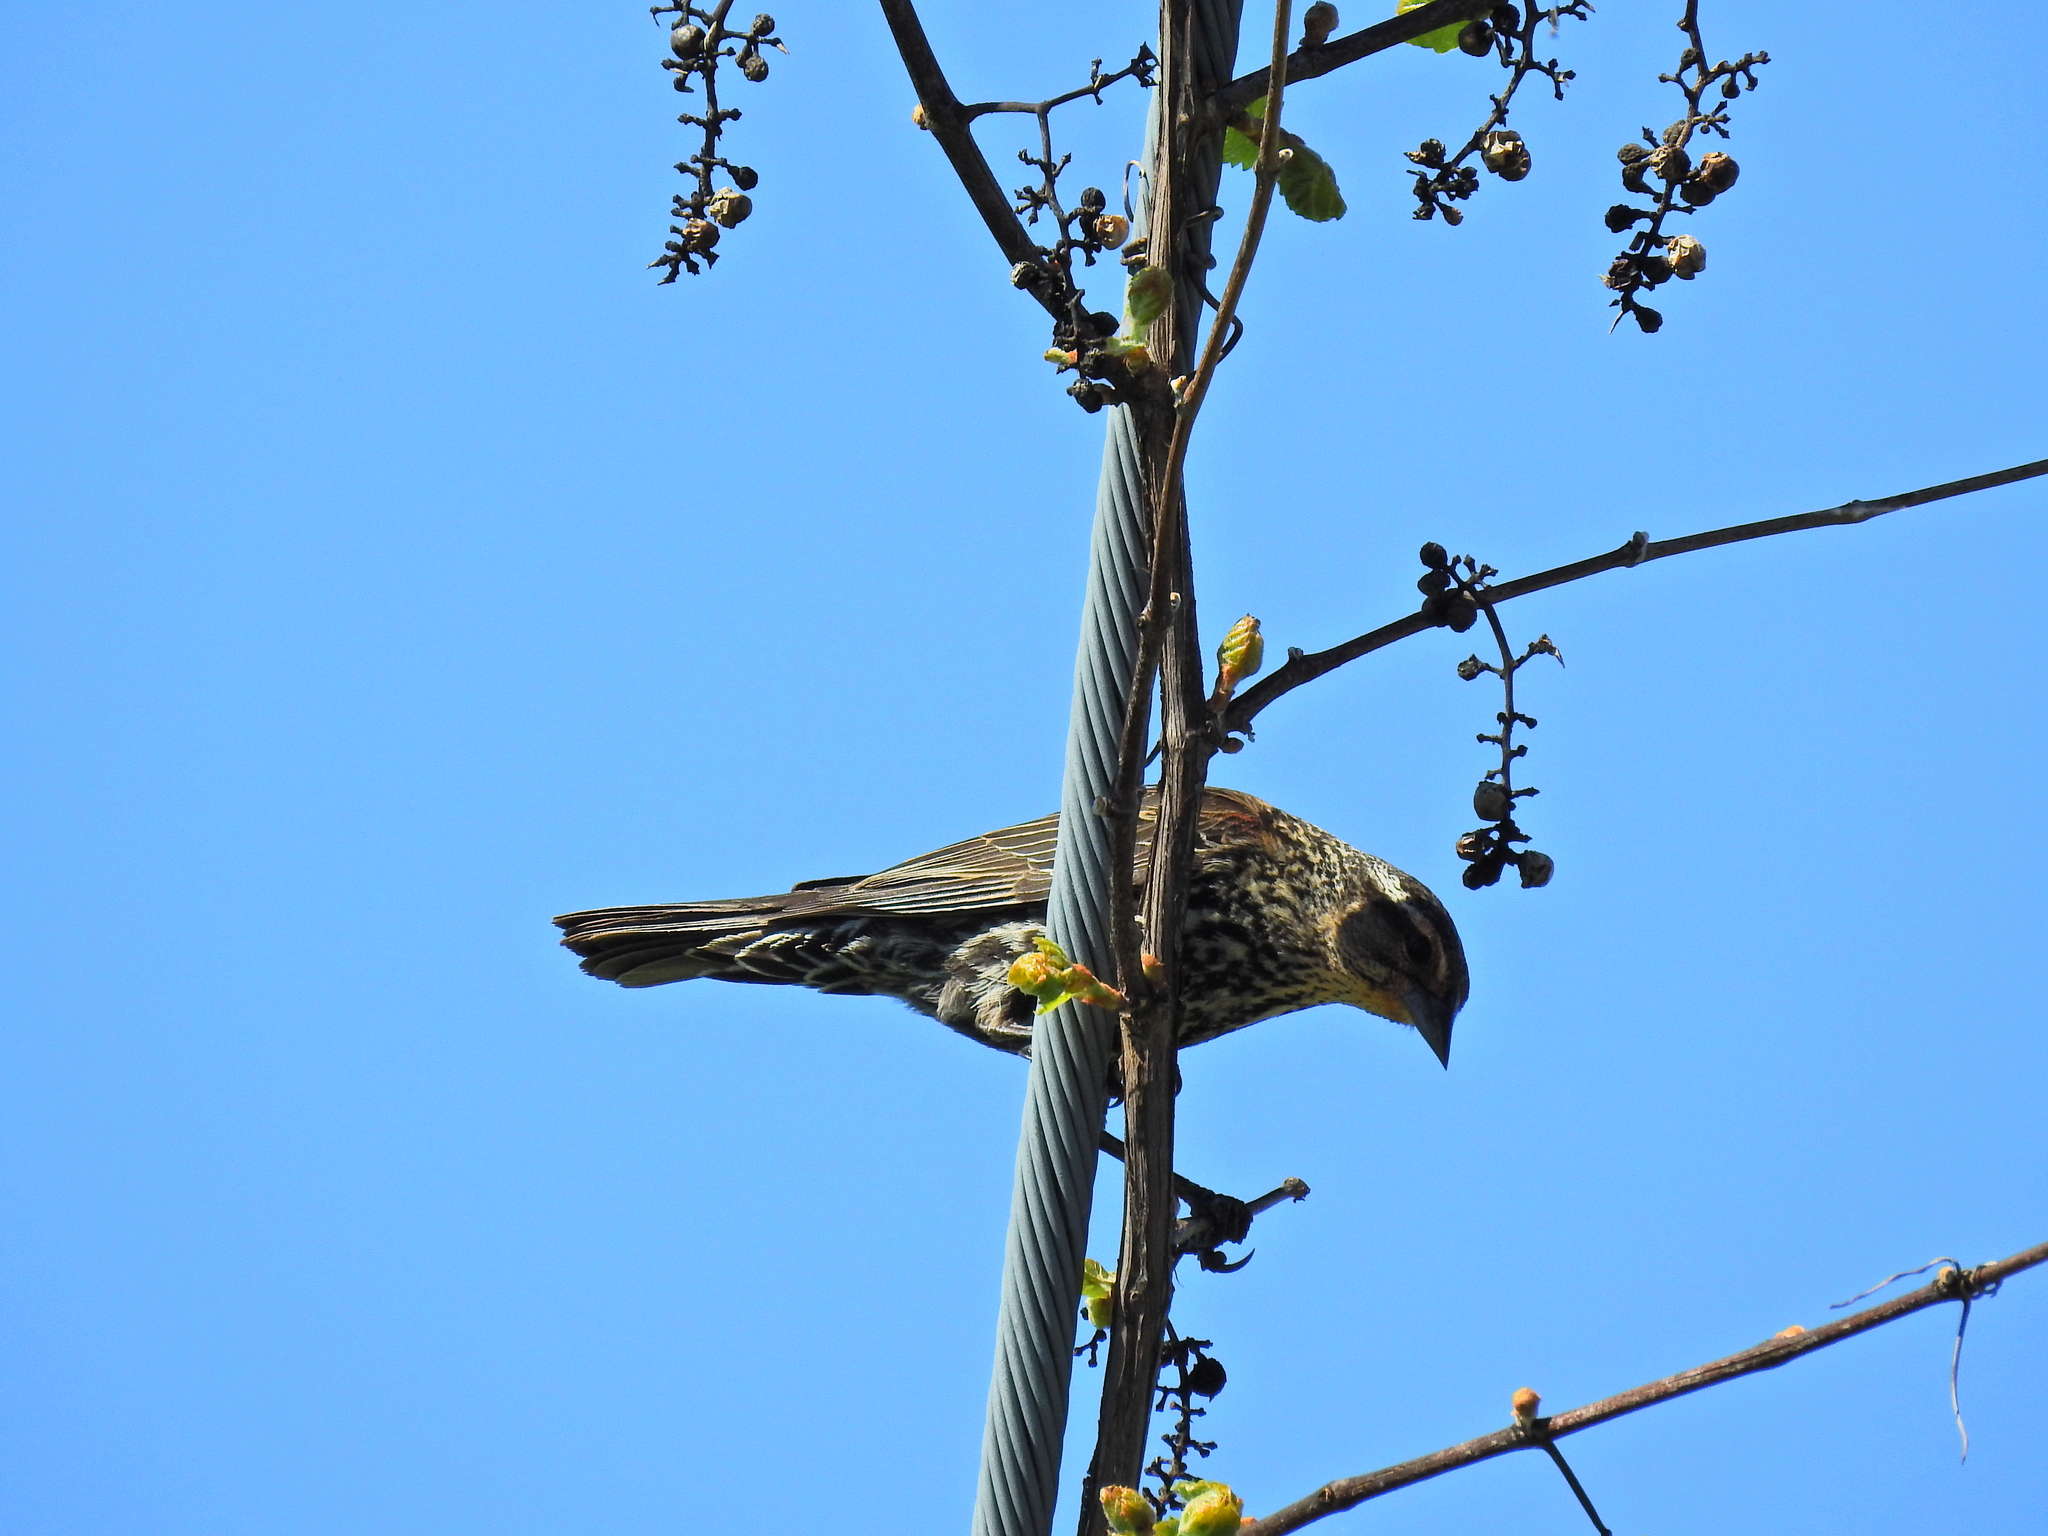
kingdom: Animalia
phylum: Chordata
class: Aves
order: Passeriformes
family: Icteridae
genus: Agelaius
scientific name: Agelaius phoeniceus
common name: Red-winged blackbird
